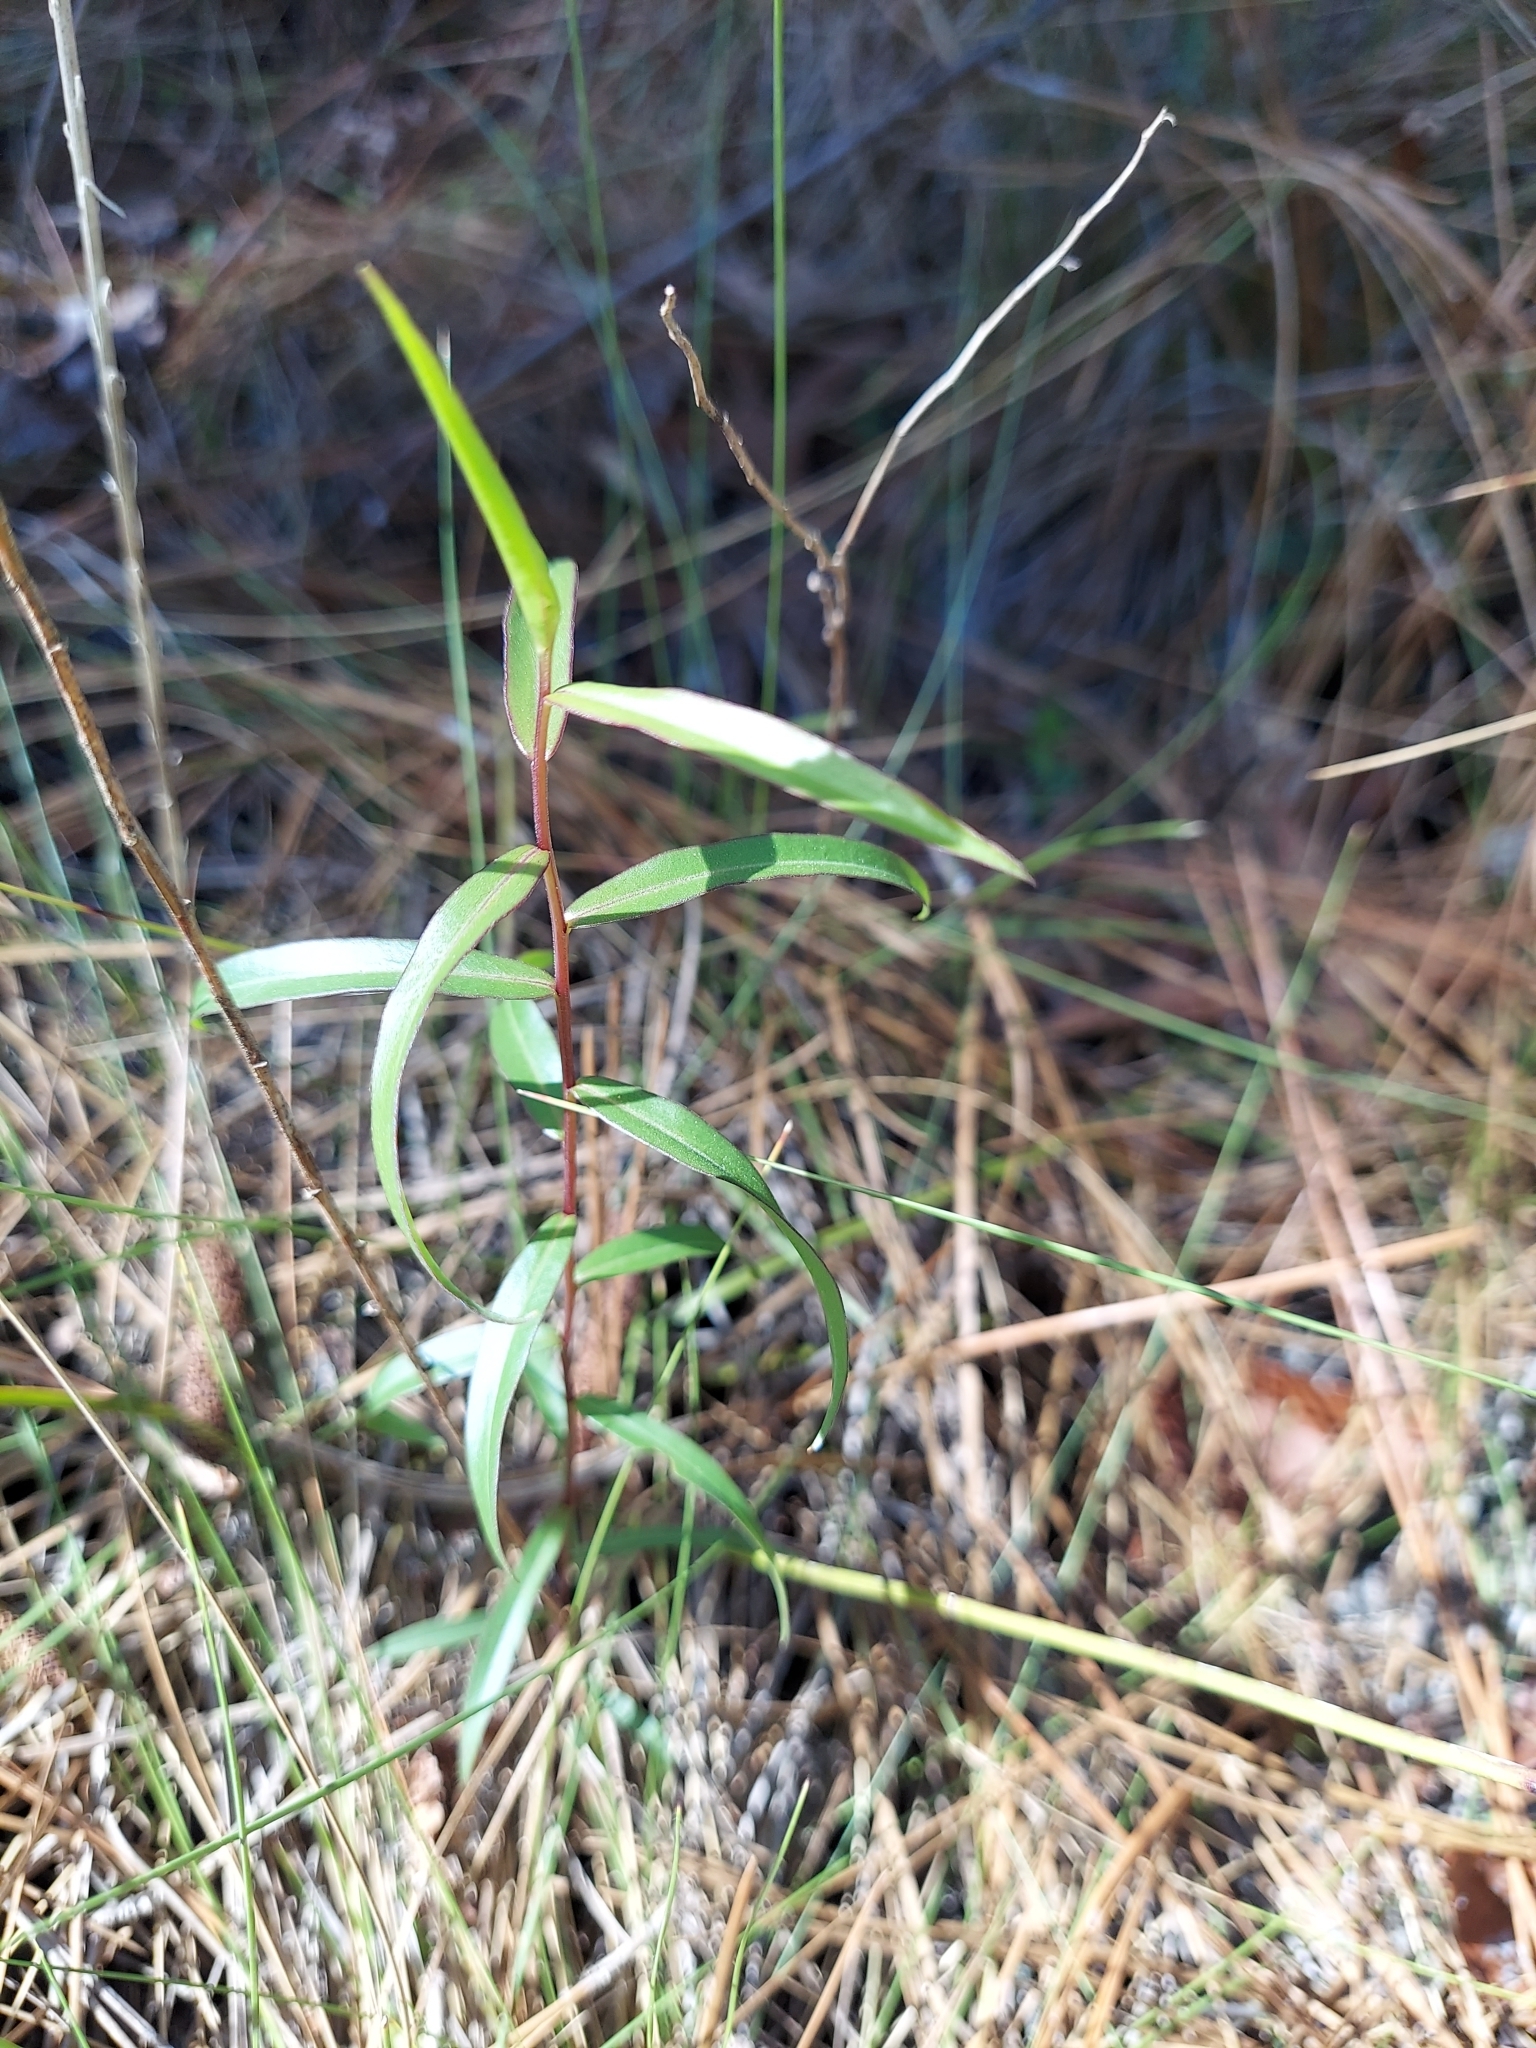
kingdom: Plantae
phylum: Tracheophyta
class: Magnoliopsida
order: Asterales
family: Asteraceae
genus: Solidago
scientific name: Solidago odora
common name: Anise-scented goldenrod
